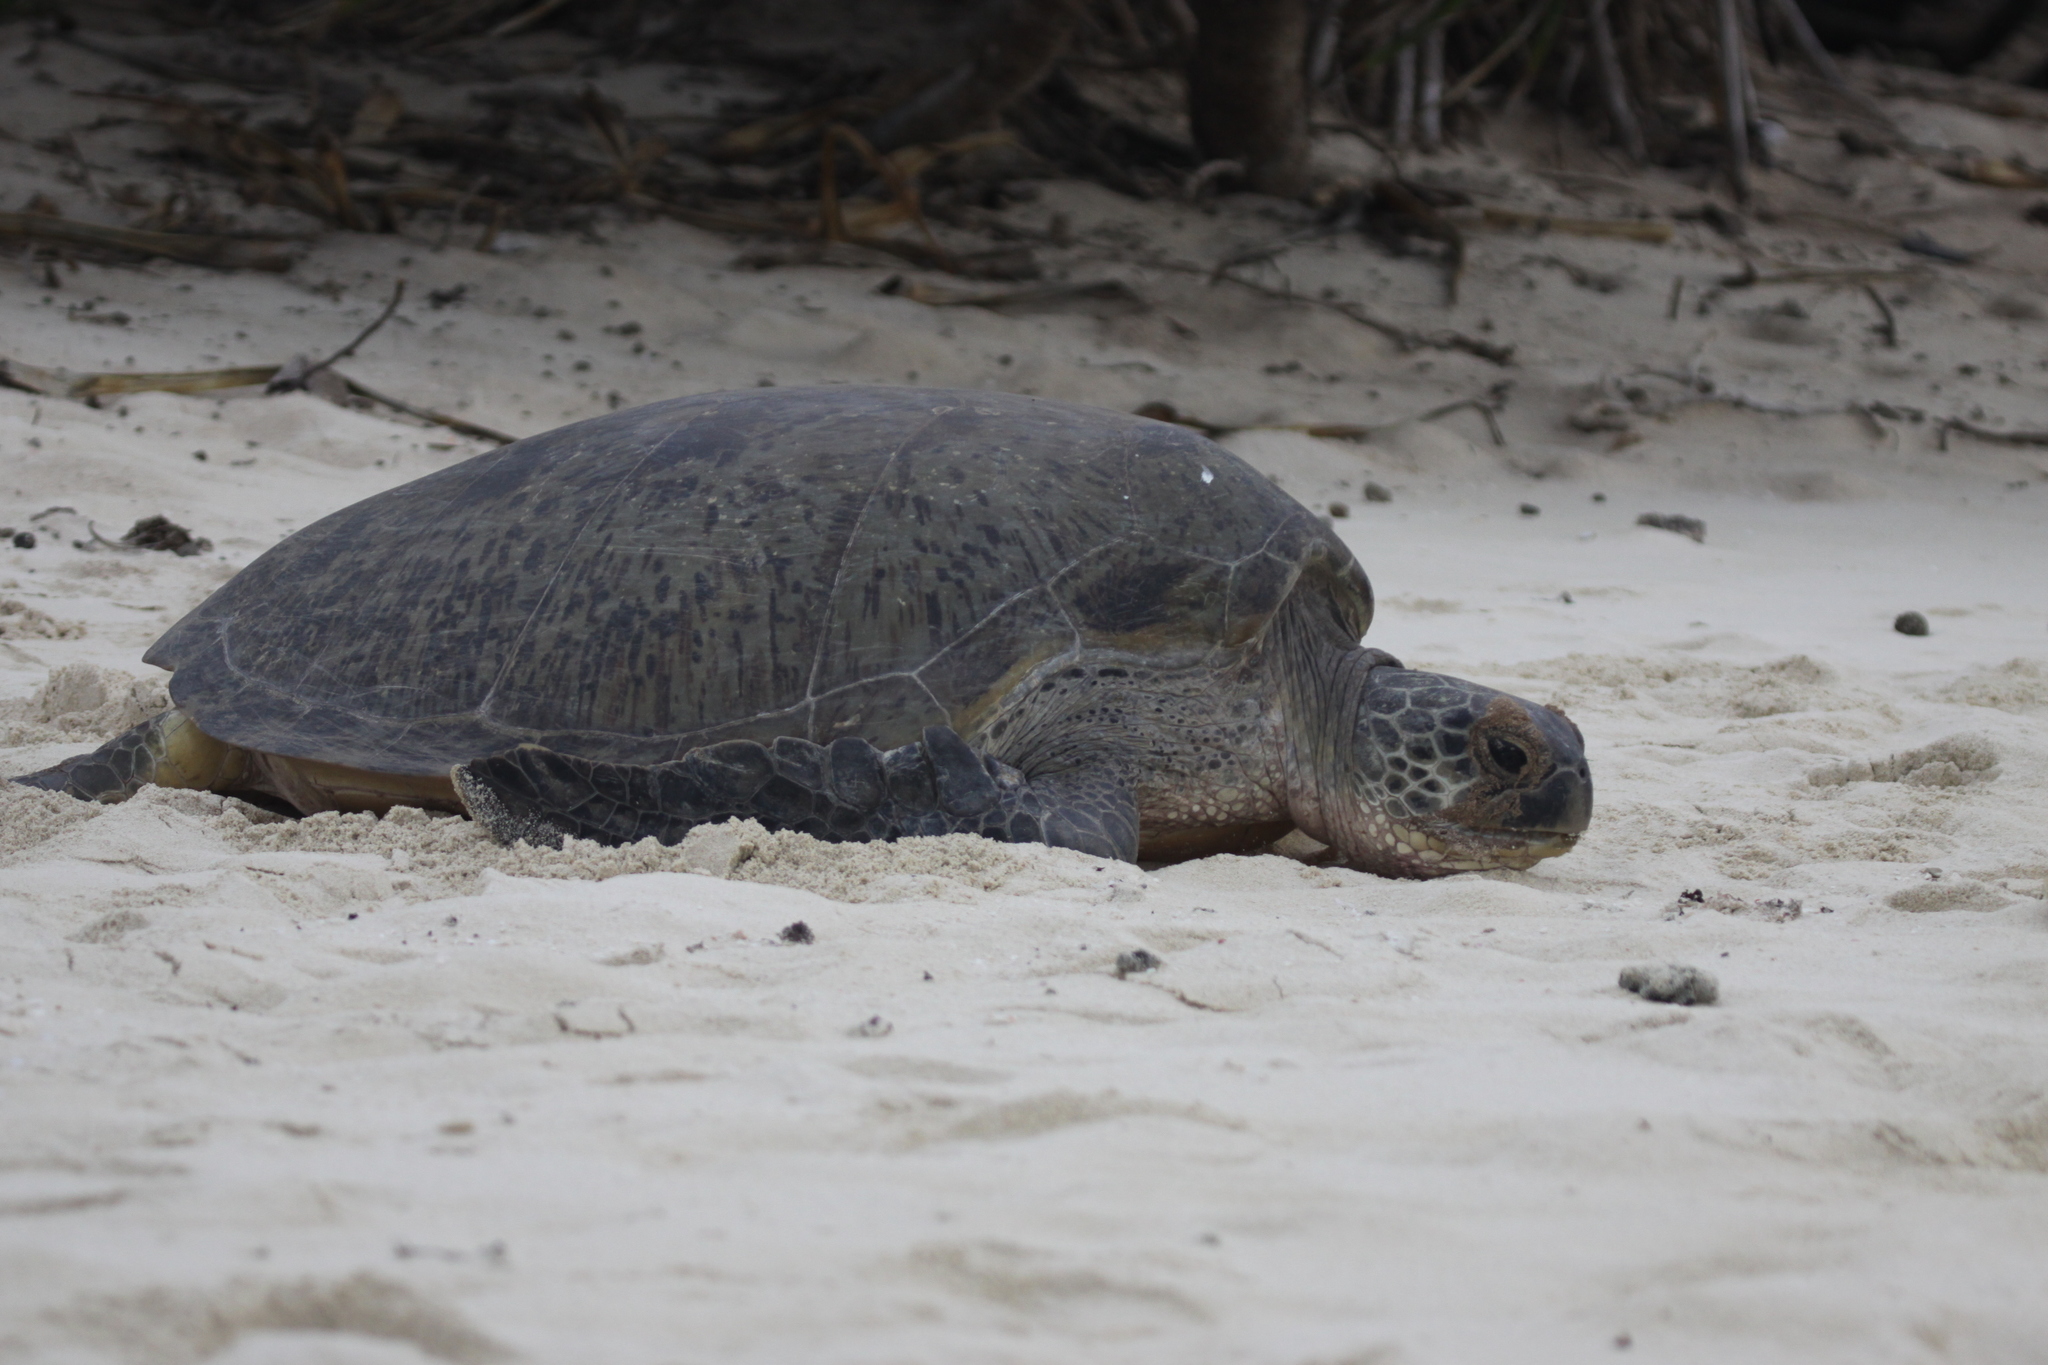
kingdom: Animalia
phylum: Chordata
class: Testudines
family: Cheloniidae
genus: Chelonia
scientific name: Chelonia mydas
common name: Green turtle
